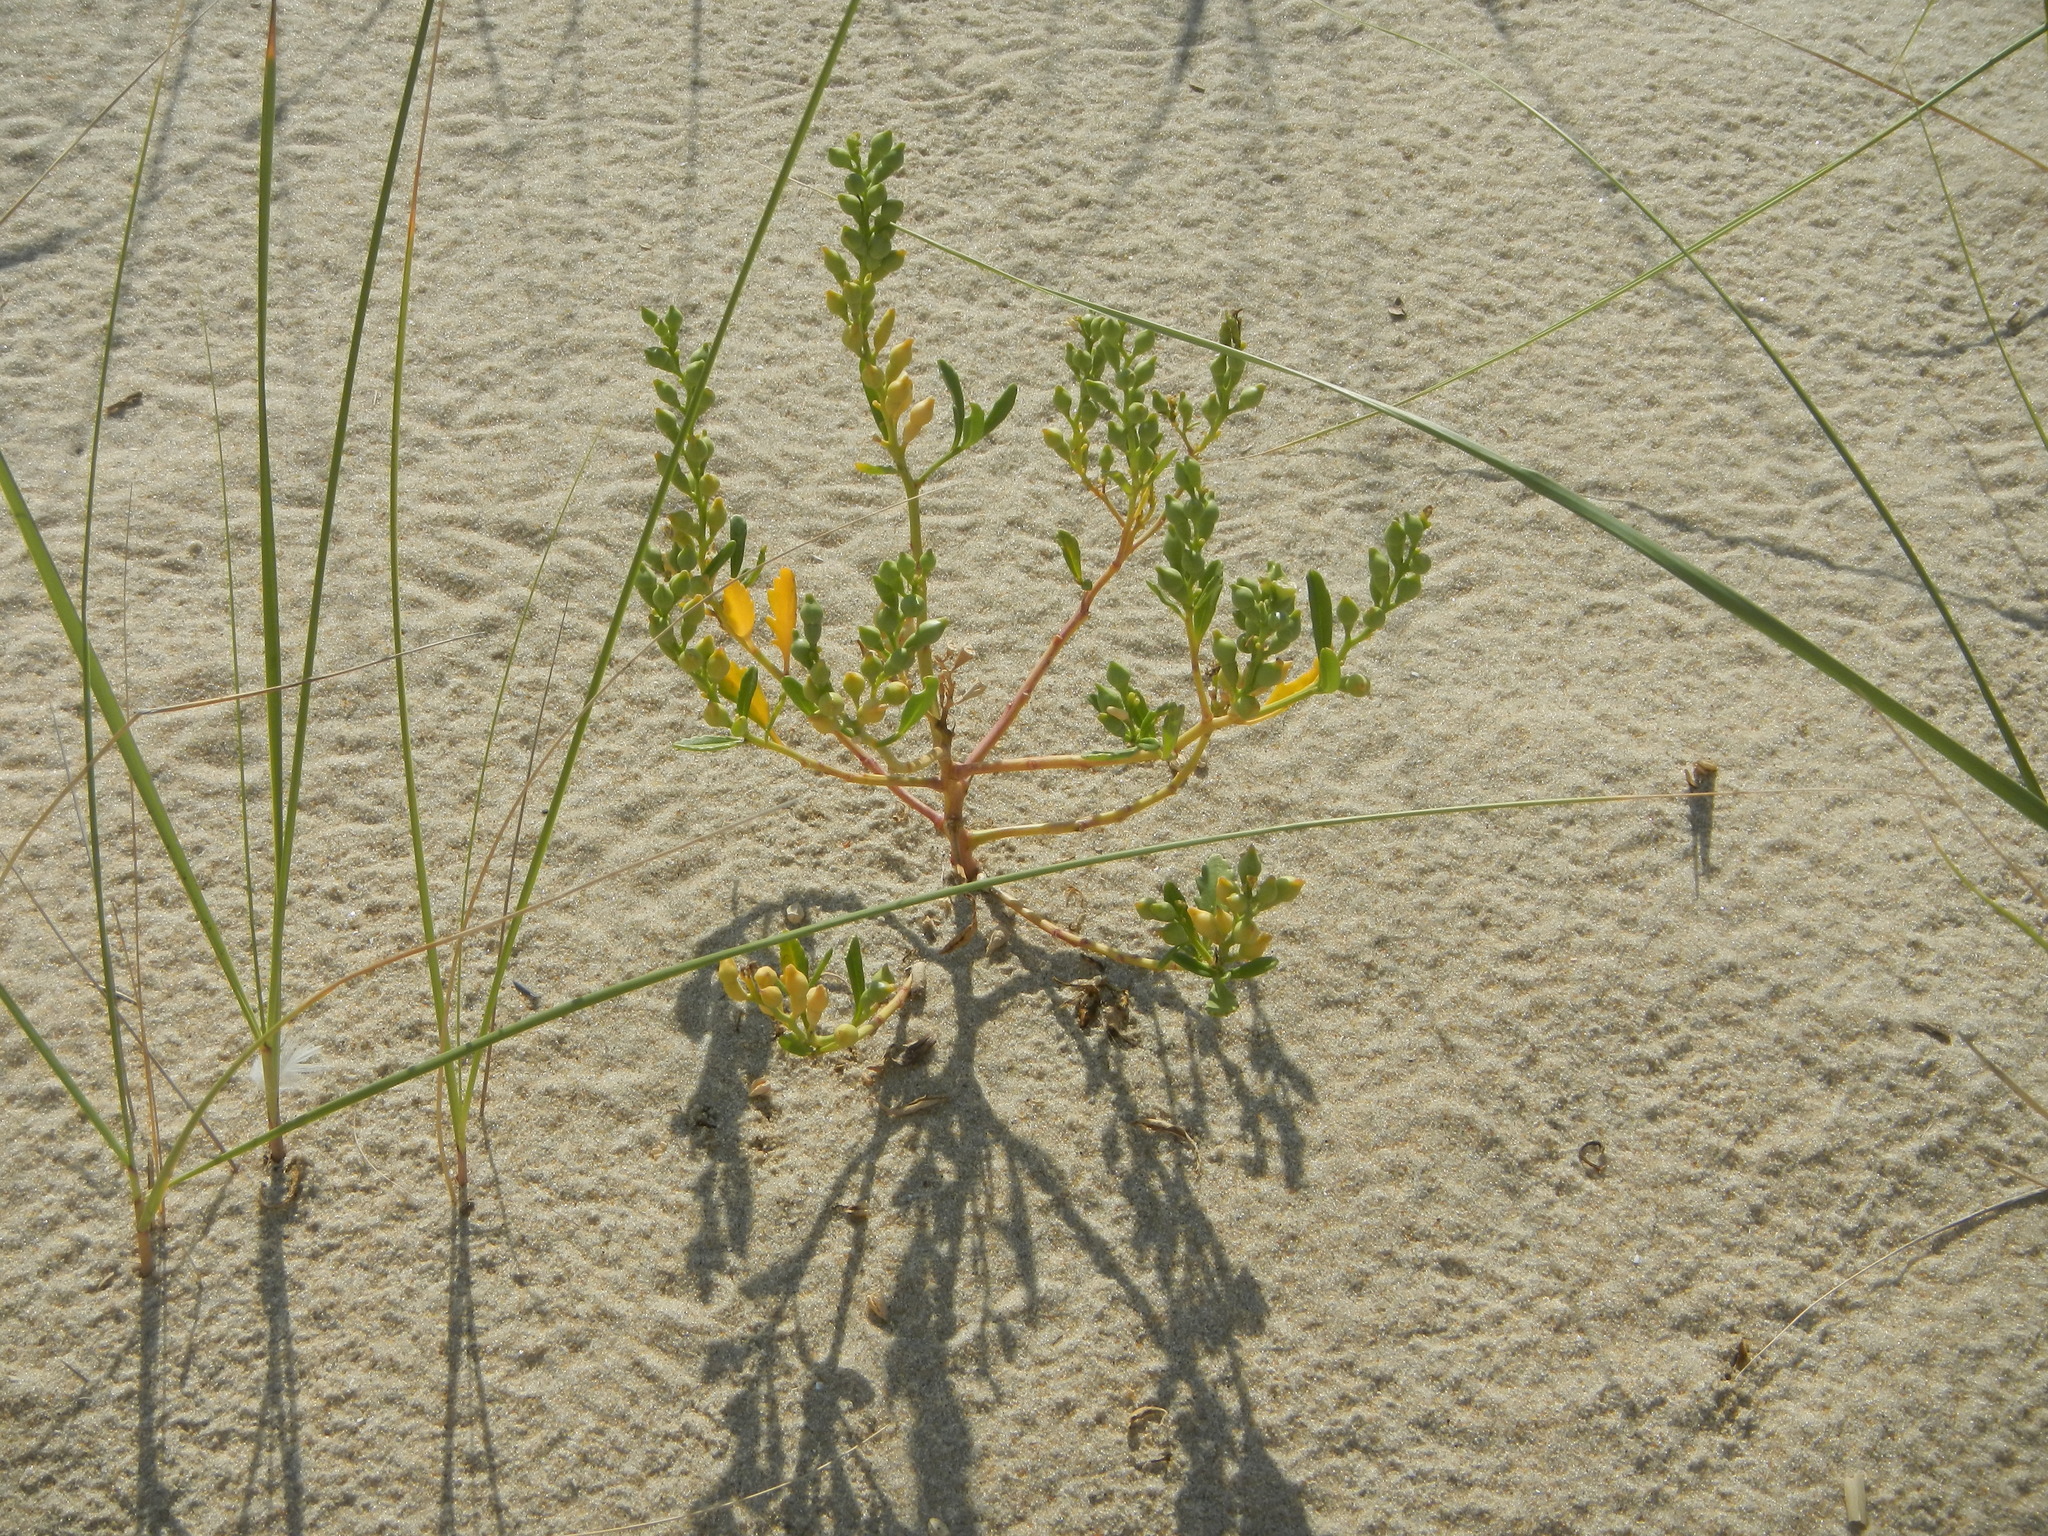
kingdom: Plantae
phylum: Tracheophyta
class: Magnoliopsida
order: Brassicales
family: Brassicaceae
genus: Cakile
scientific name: Cakile edentula
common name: American sea rocket
